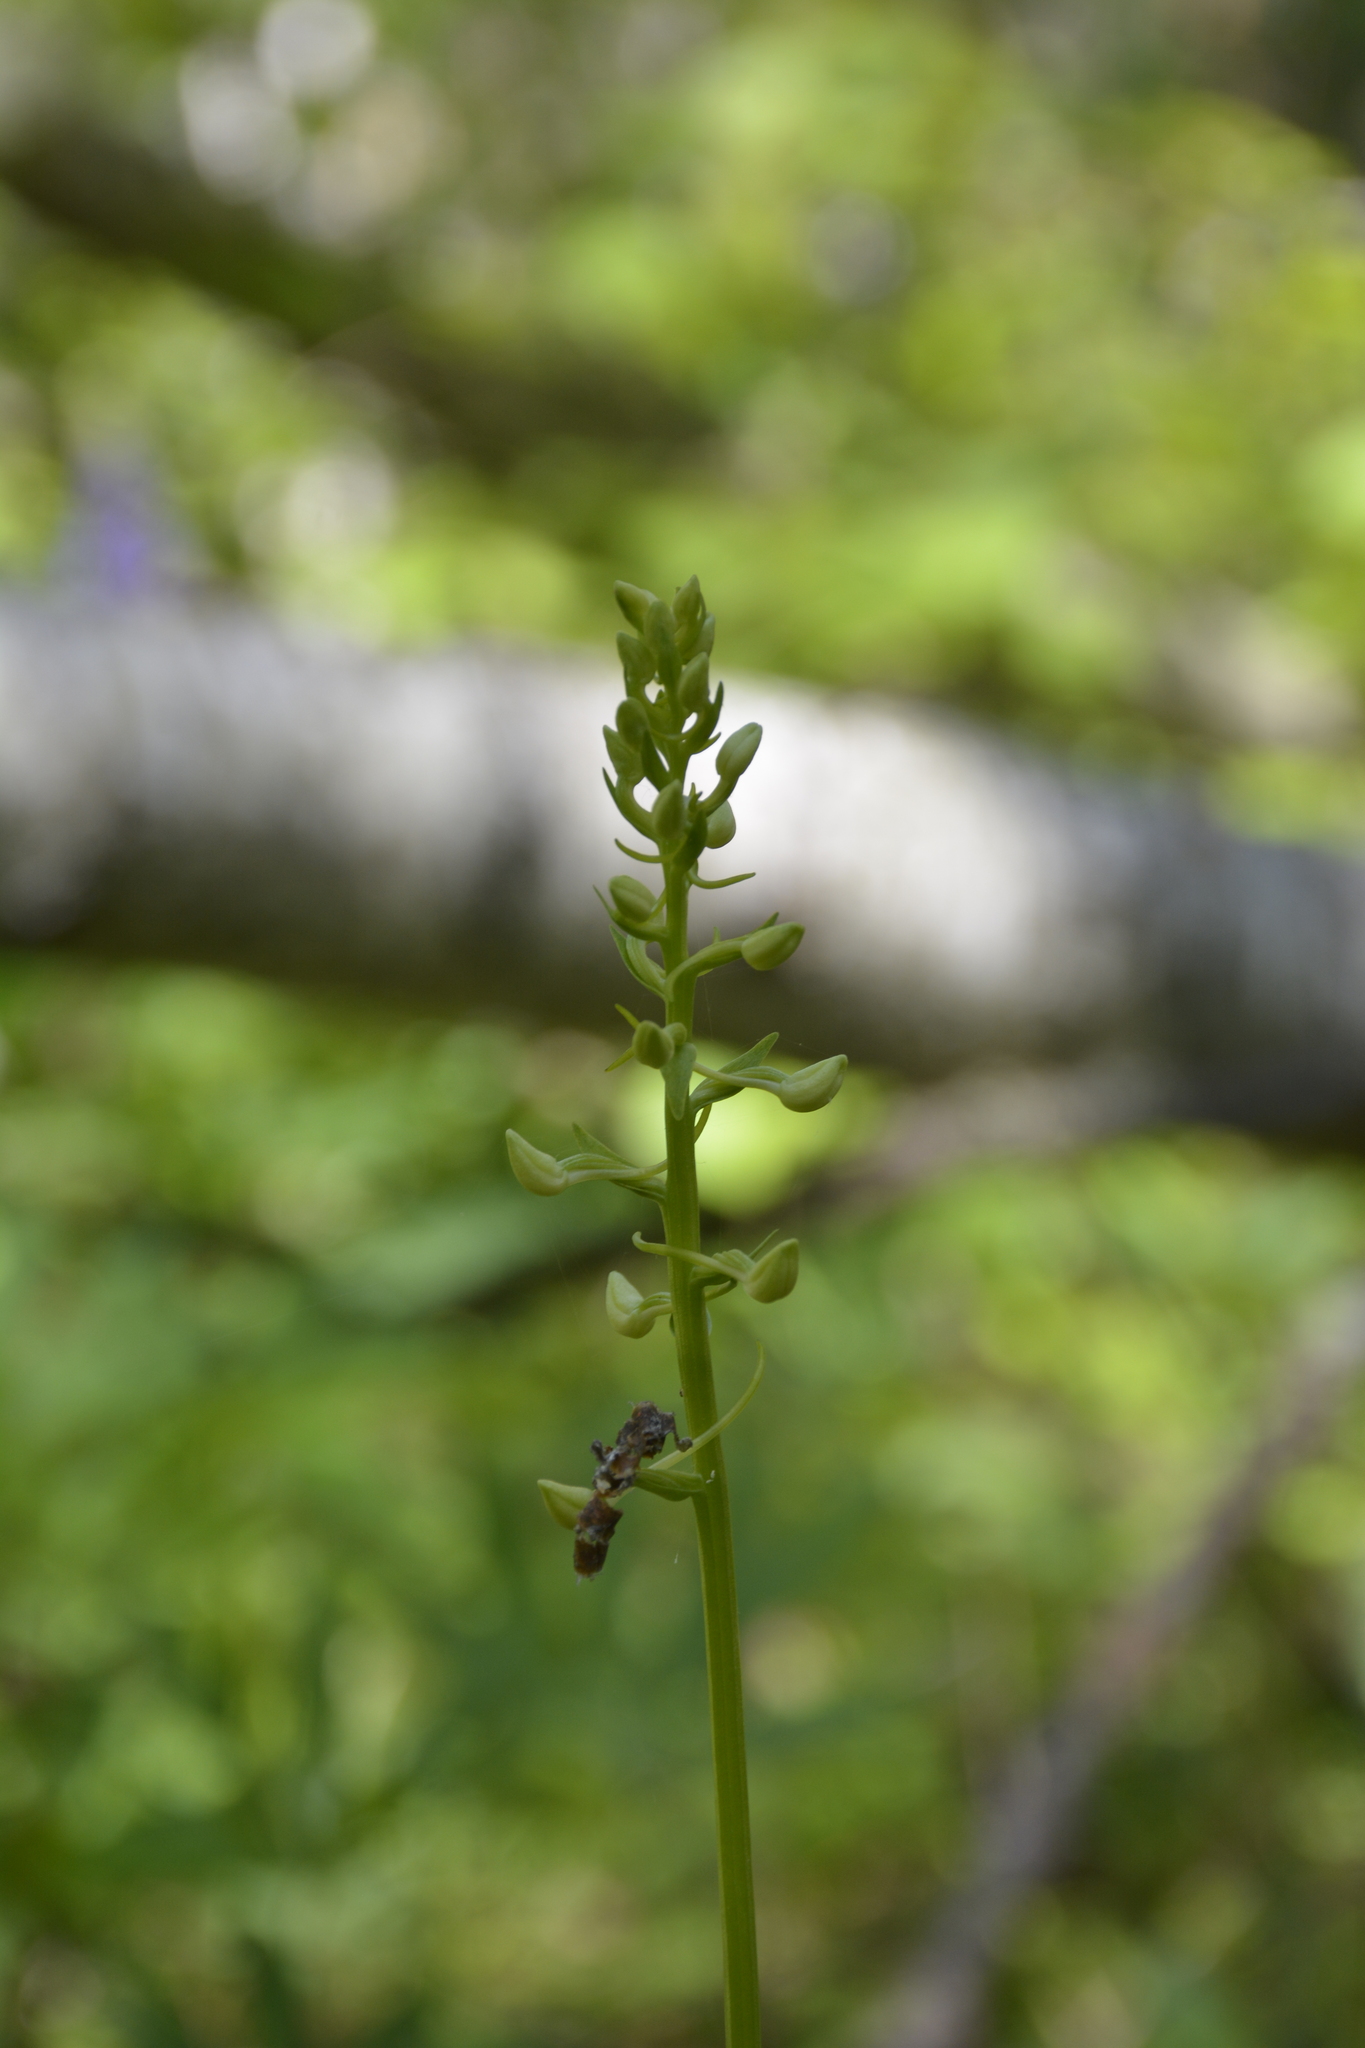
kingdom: Plantae
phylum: Tracheophyta
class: Liliopsida
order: Asparagales
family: Orchidaceae
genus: Platanthera
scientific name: Platanthera
